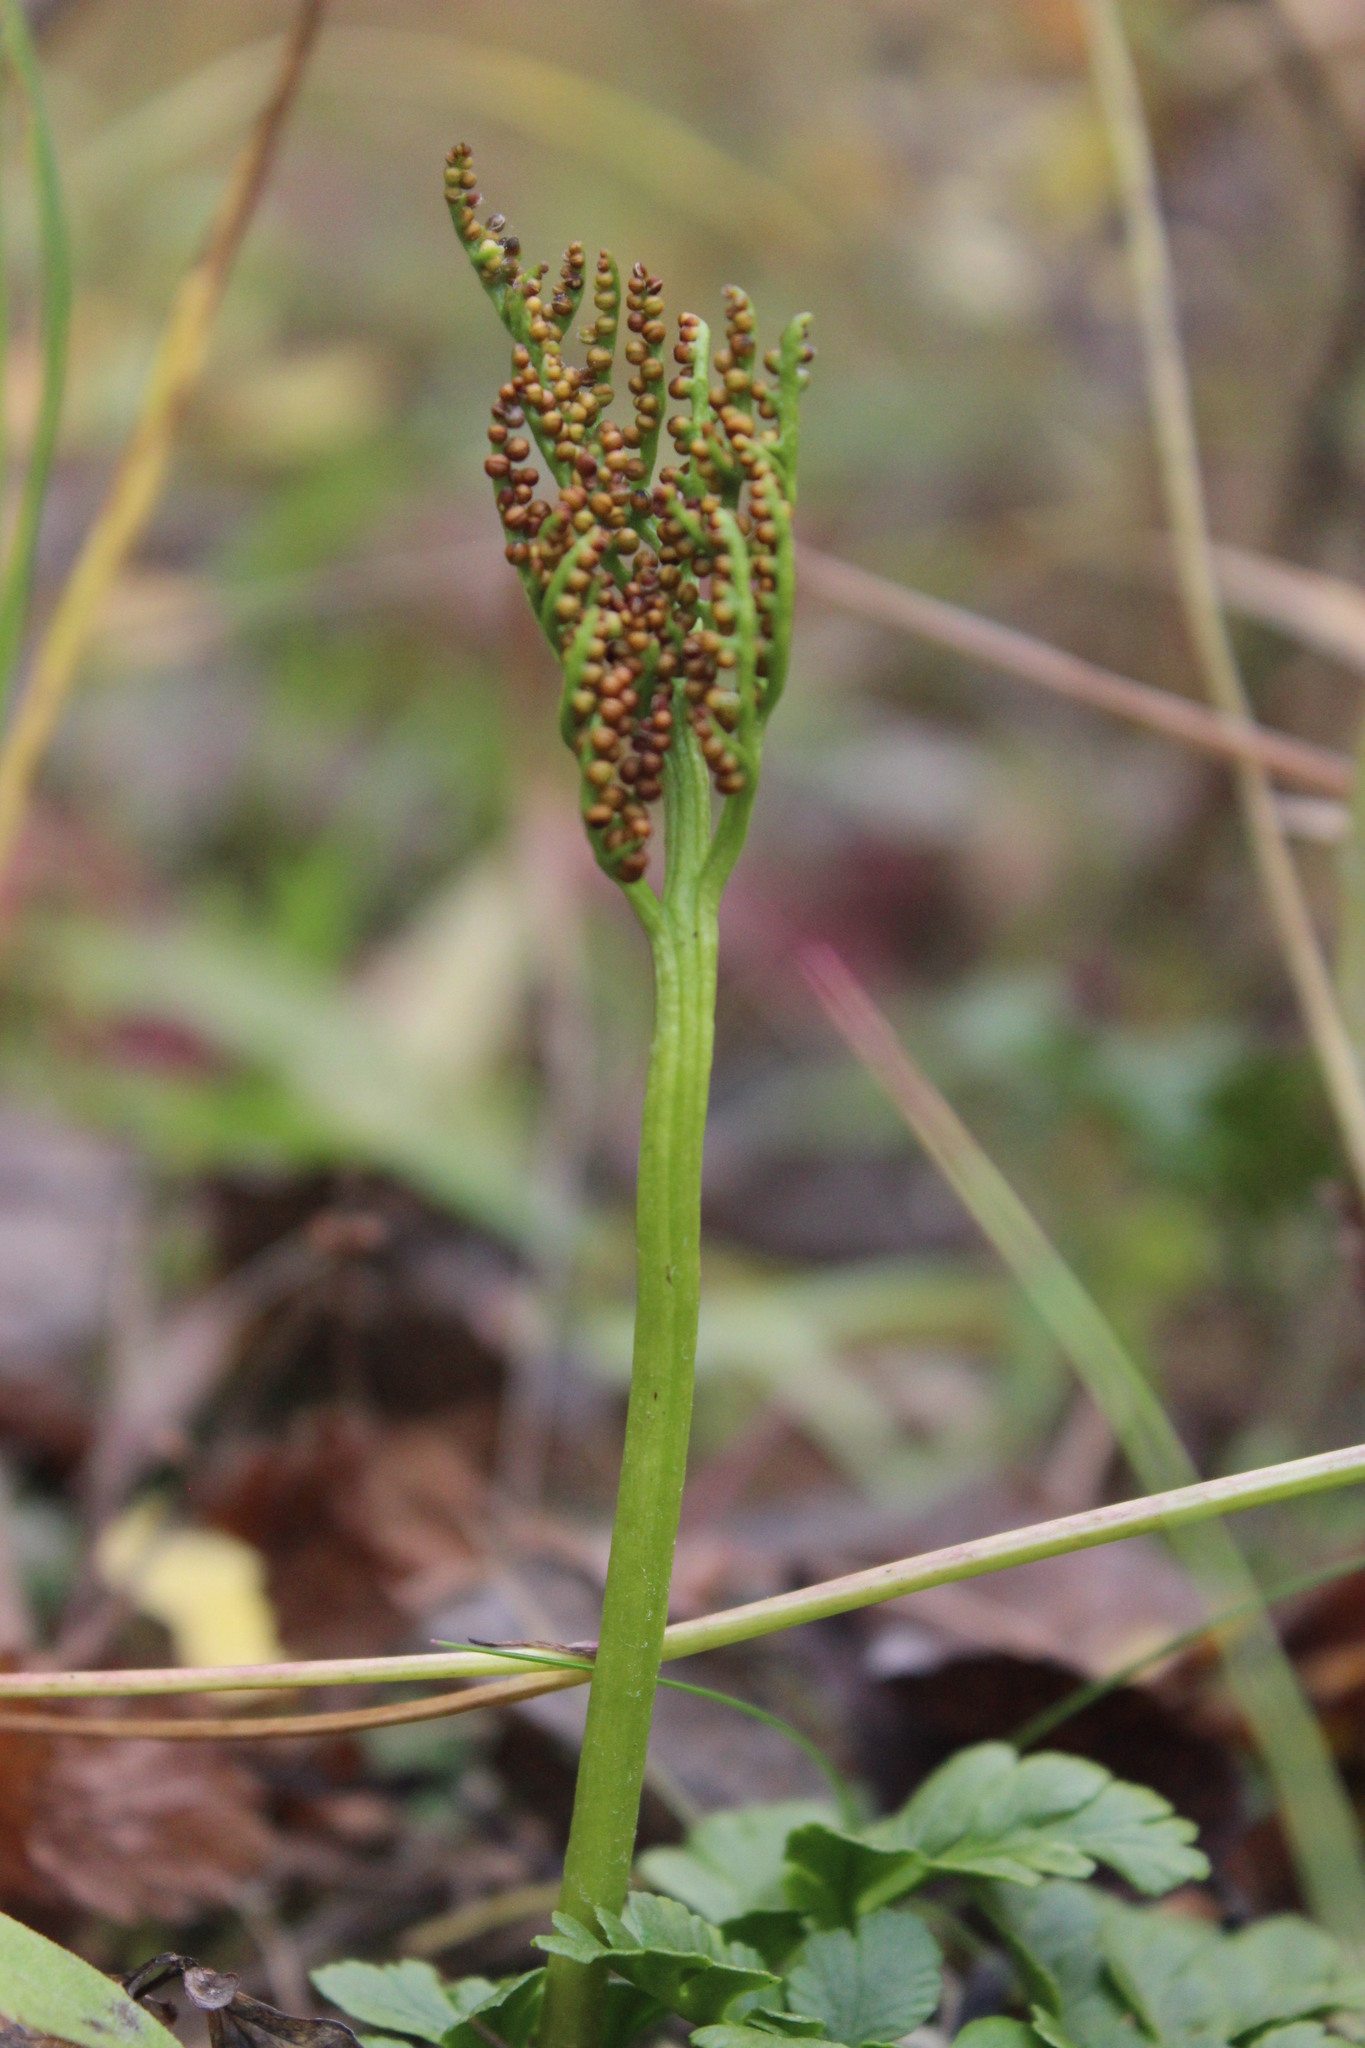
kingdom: Plantae
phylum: Tracheophyta
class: Polypodiopsida
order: Ophioglossales
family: Ophioglossaceae
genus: Sceptridium
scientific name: Sceptridium multifidum
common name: Leathery grape fern
